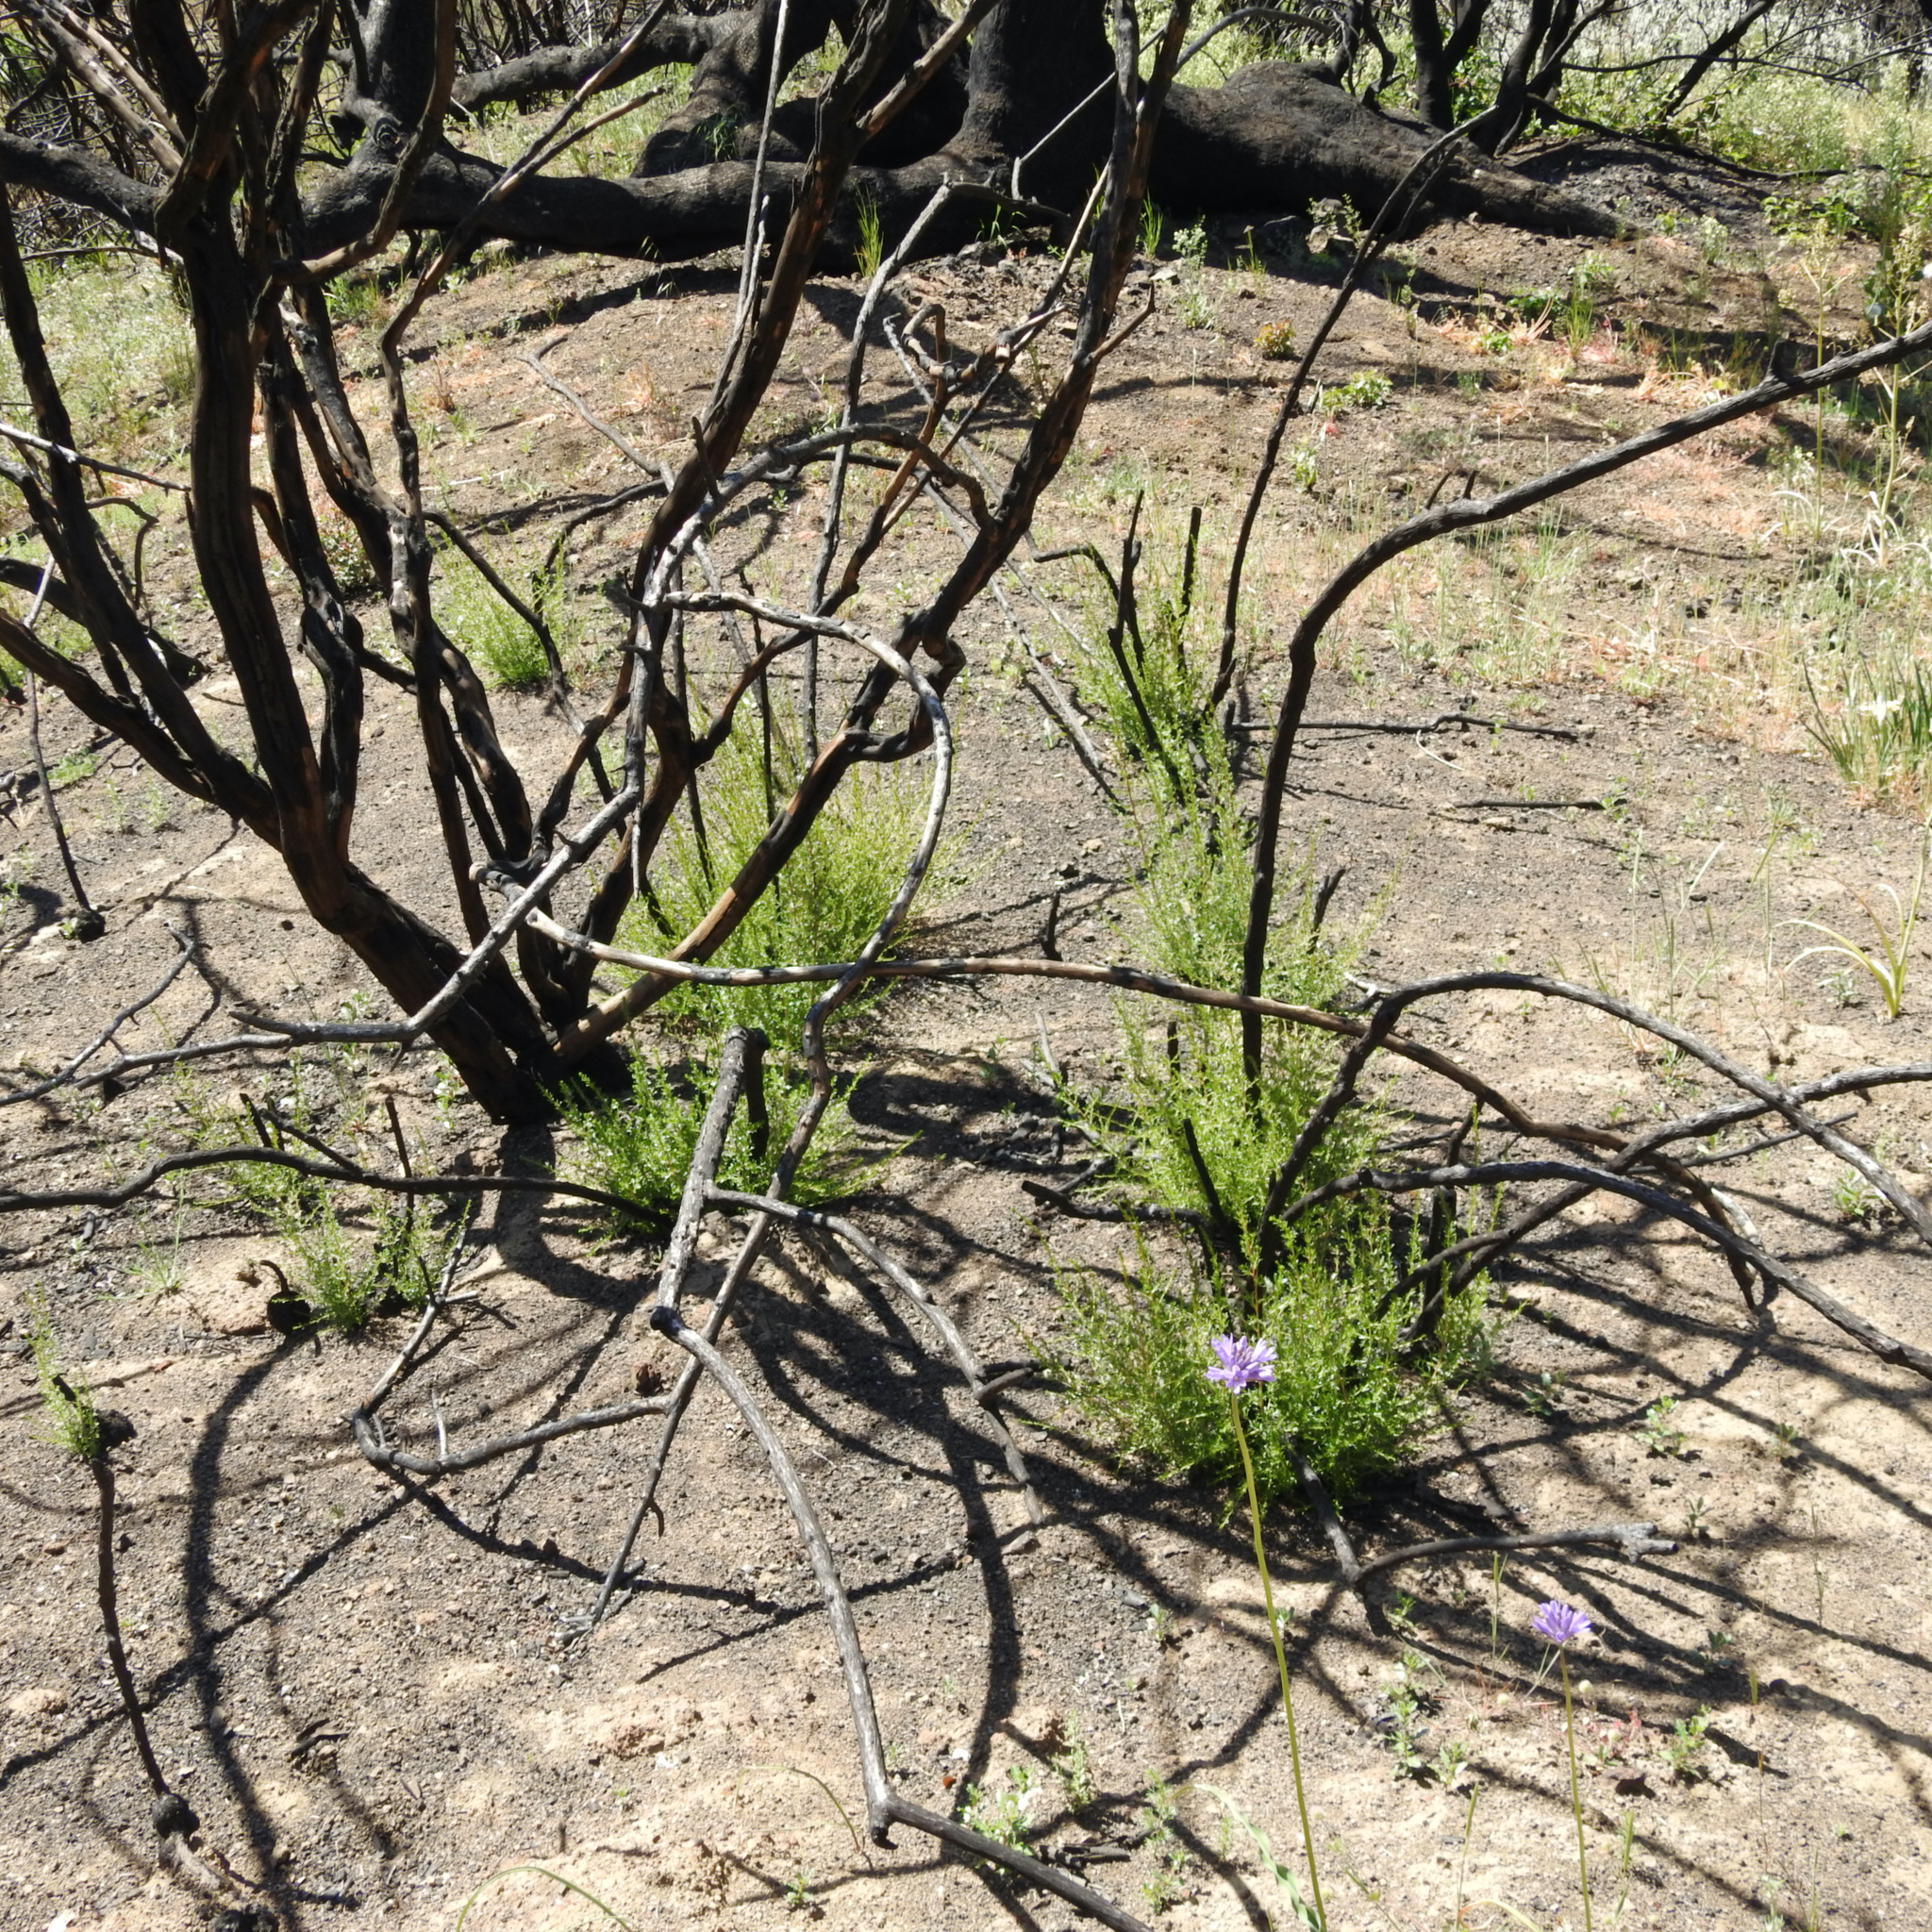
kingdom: Plantae
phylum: Tracheophyta
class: Liliopsida
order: Asparagales
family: Asparagaceae
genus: Dichelostemma
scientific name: Dichelostemma congestum
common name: Fork-tooth ookow
